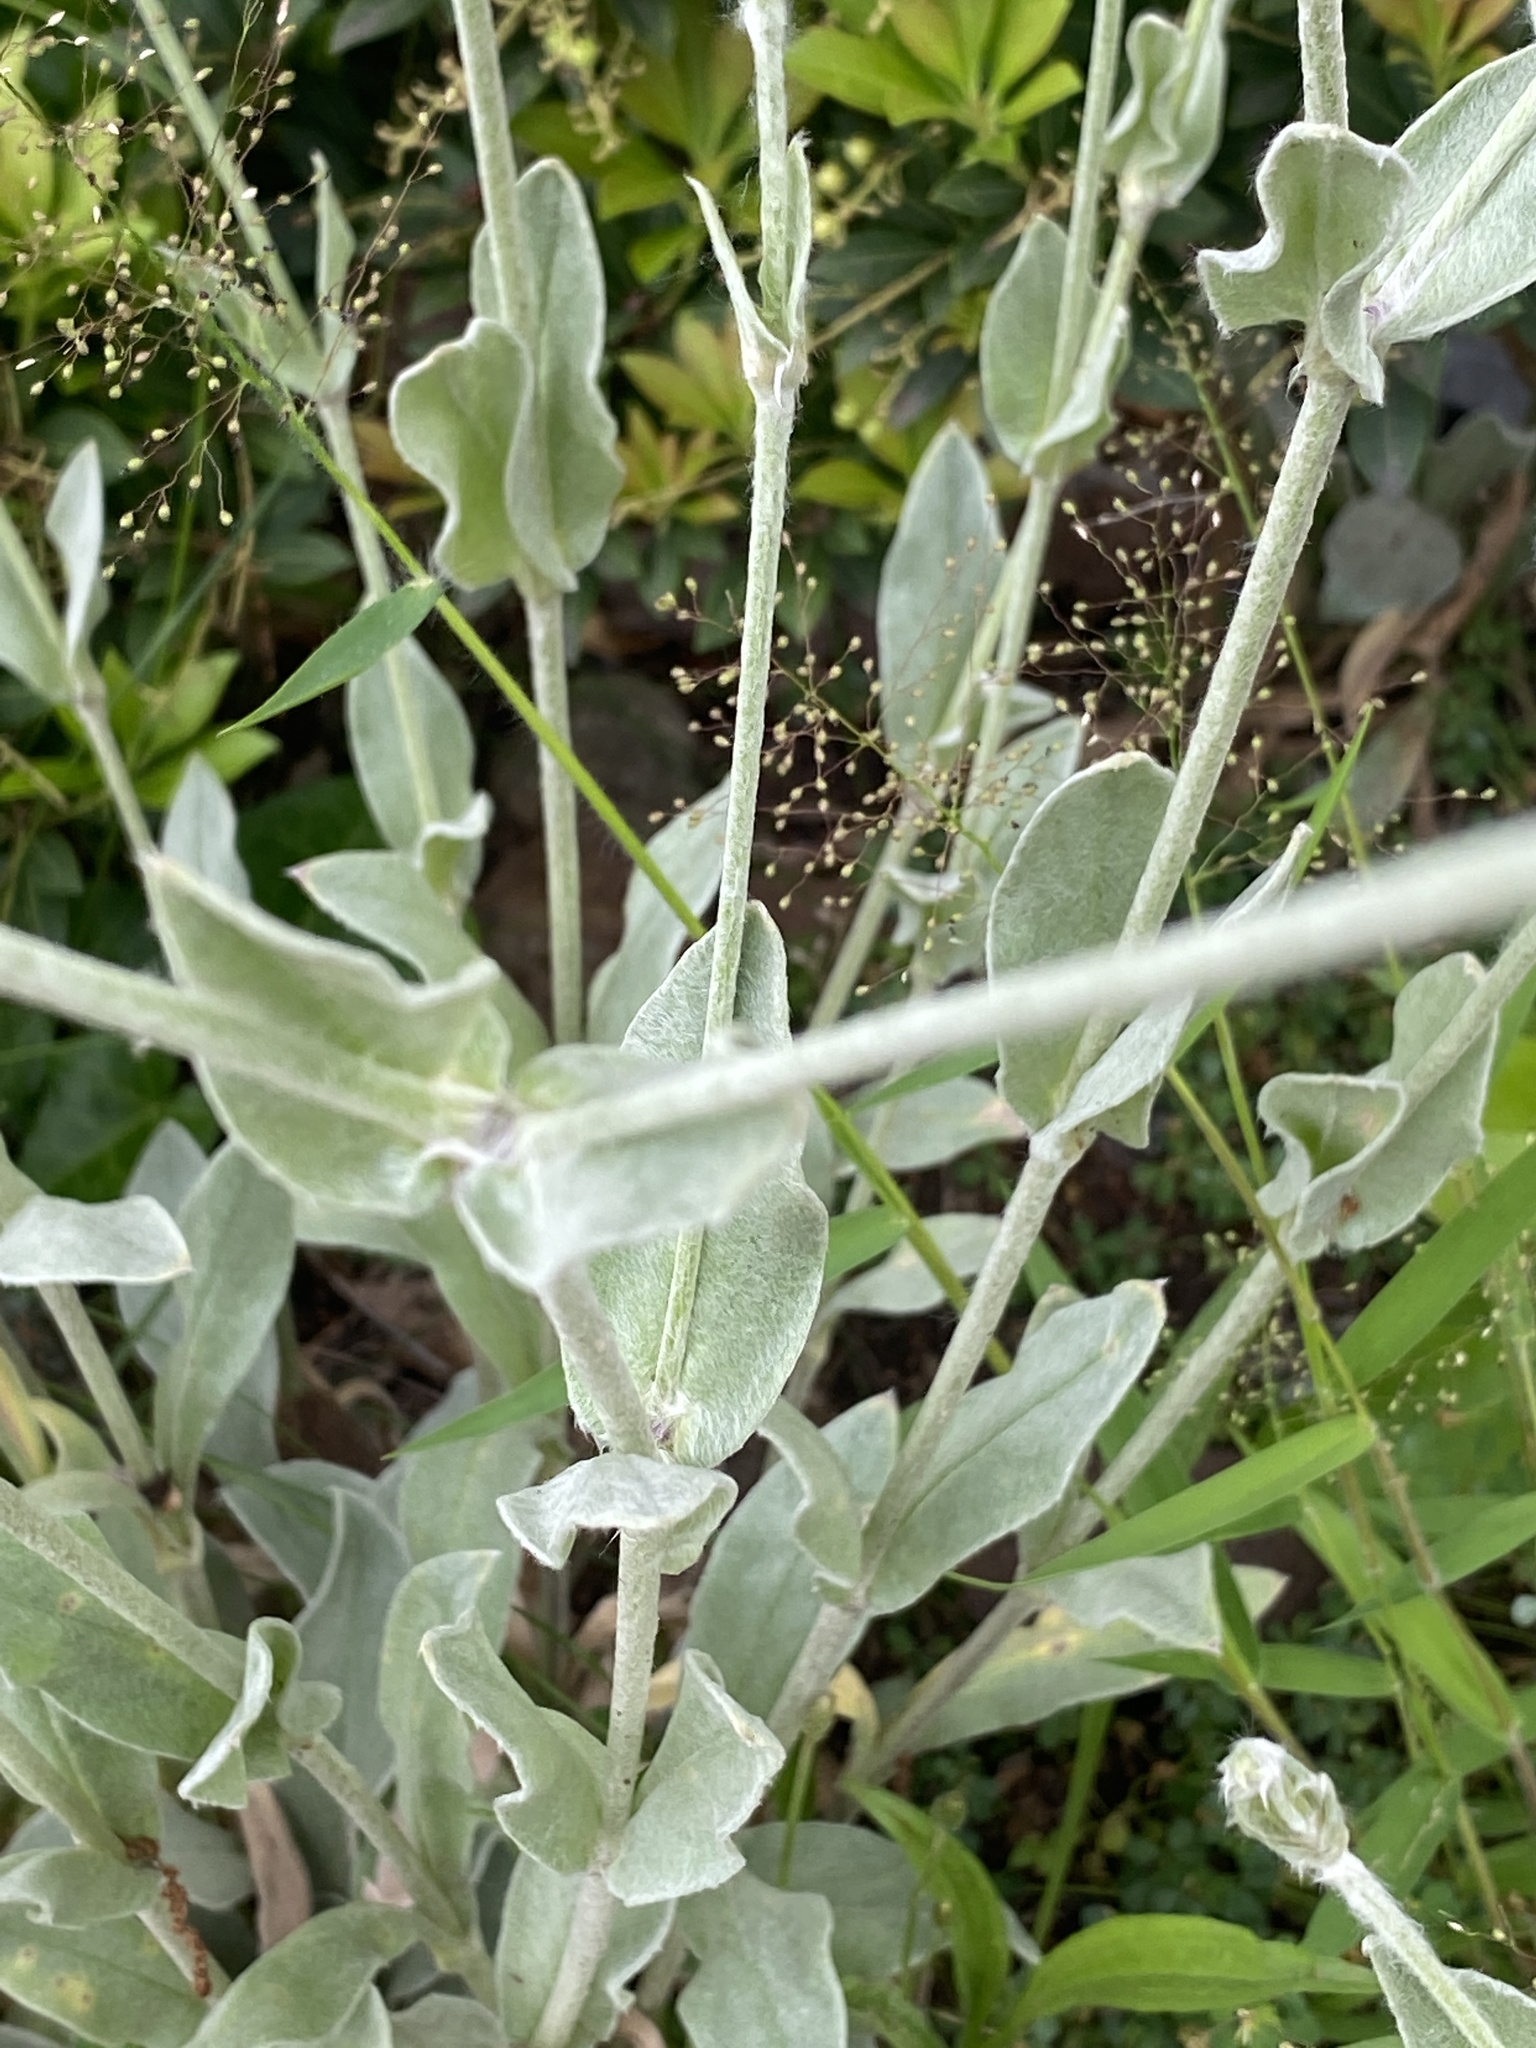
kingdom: Plantae
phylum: Tracheophyta
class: Magnoliopsida
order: Caryophyllales
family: Caryophyllaceae
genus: Silene
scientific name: Silene coronaria
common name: Rose campion
